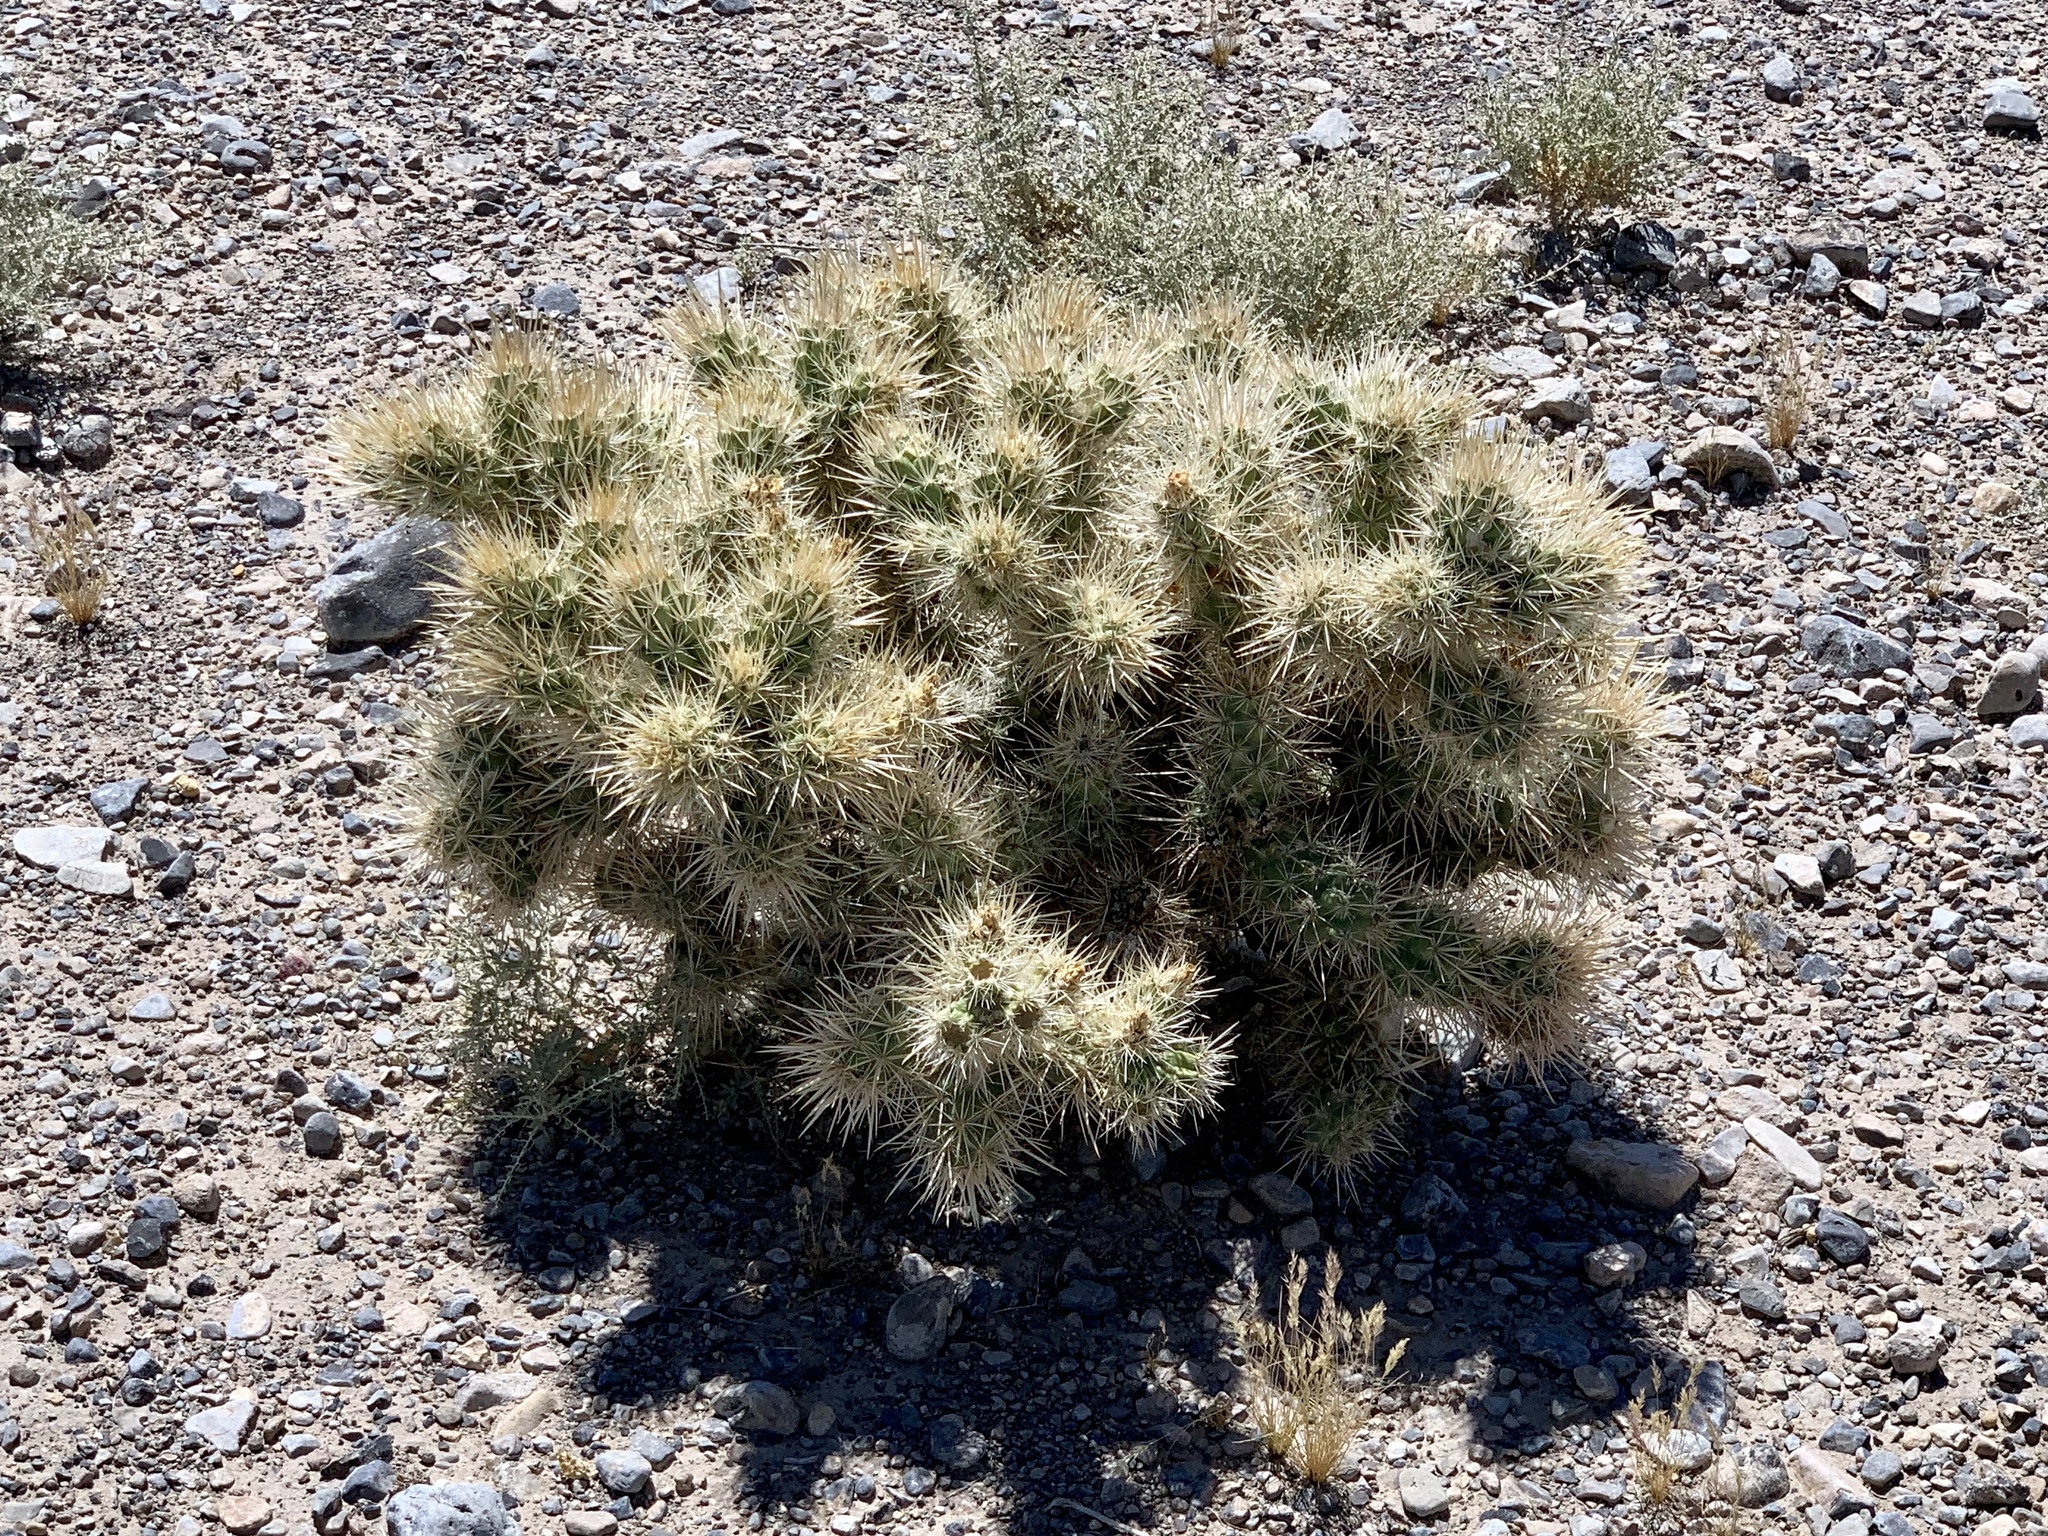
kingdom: Plantae
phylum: Tracheophyta
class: Magnoliopsida
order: Caryophyllales
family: Cactaceae
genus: Cylindropuntia
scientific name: Cylindropuntia echinocarpa
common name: Ground cholla
